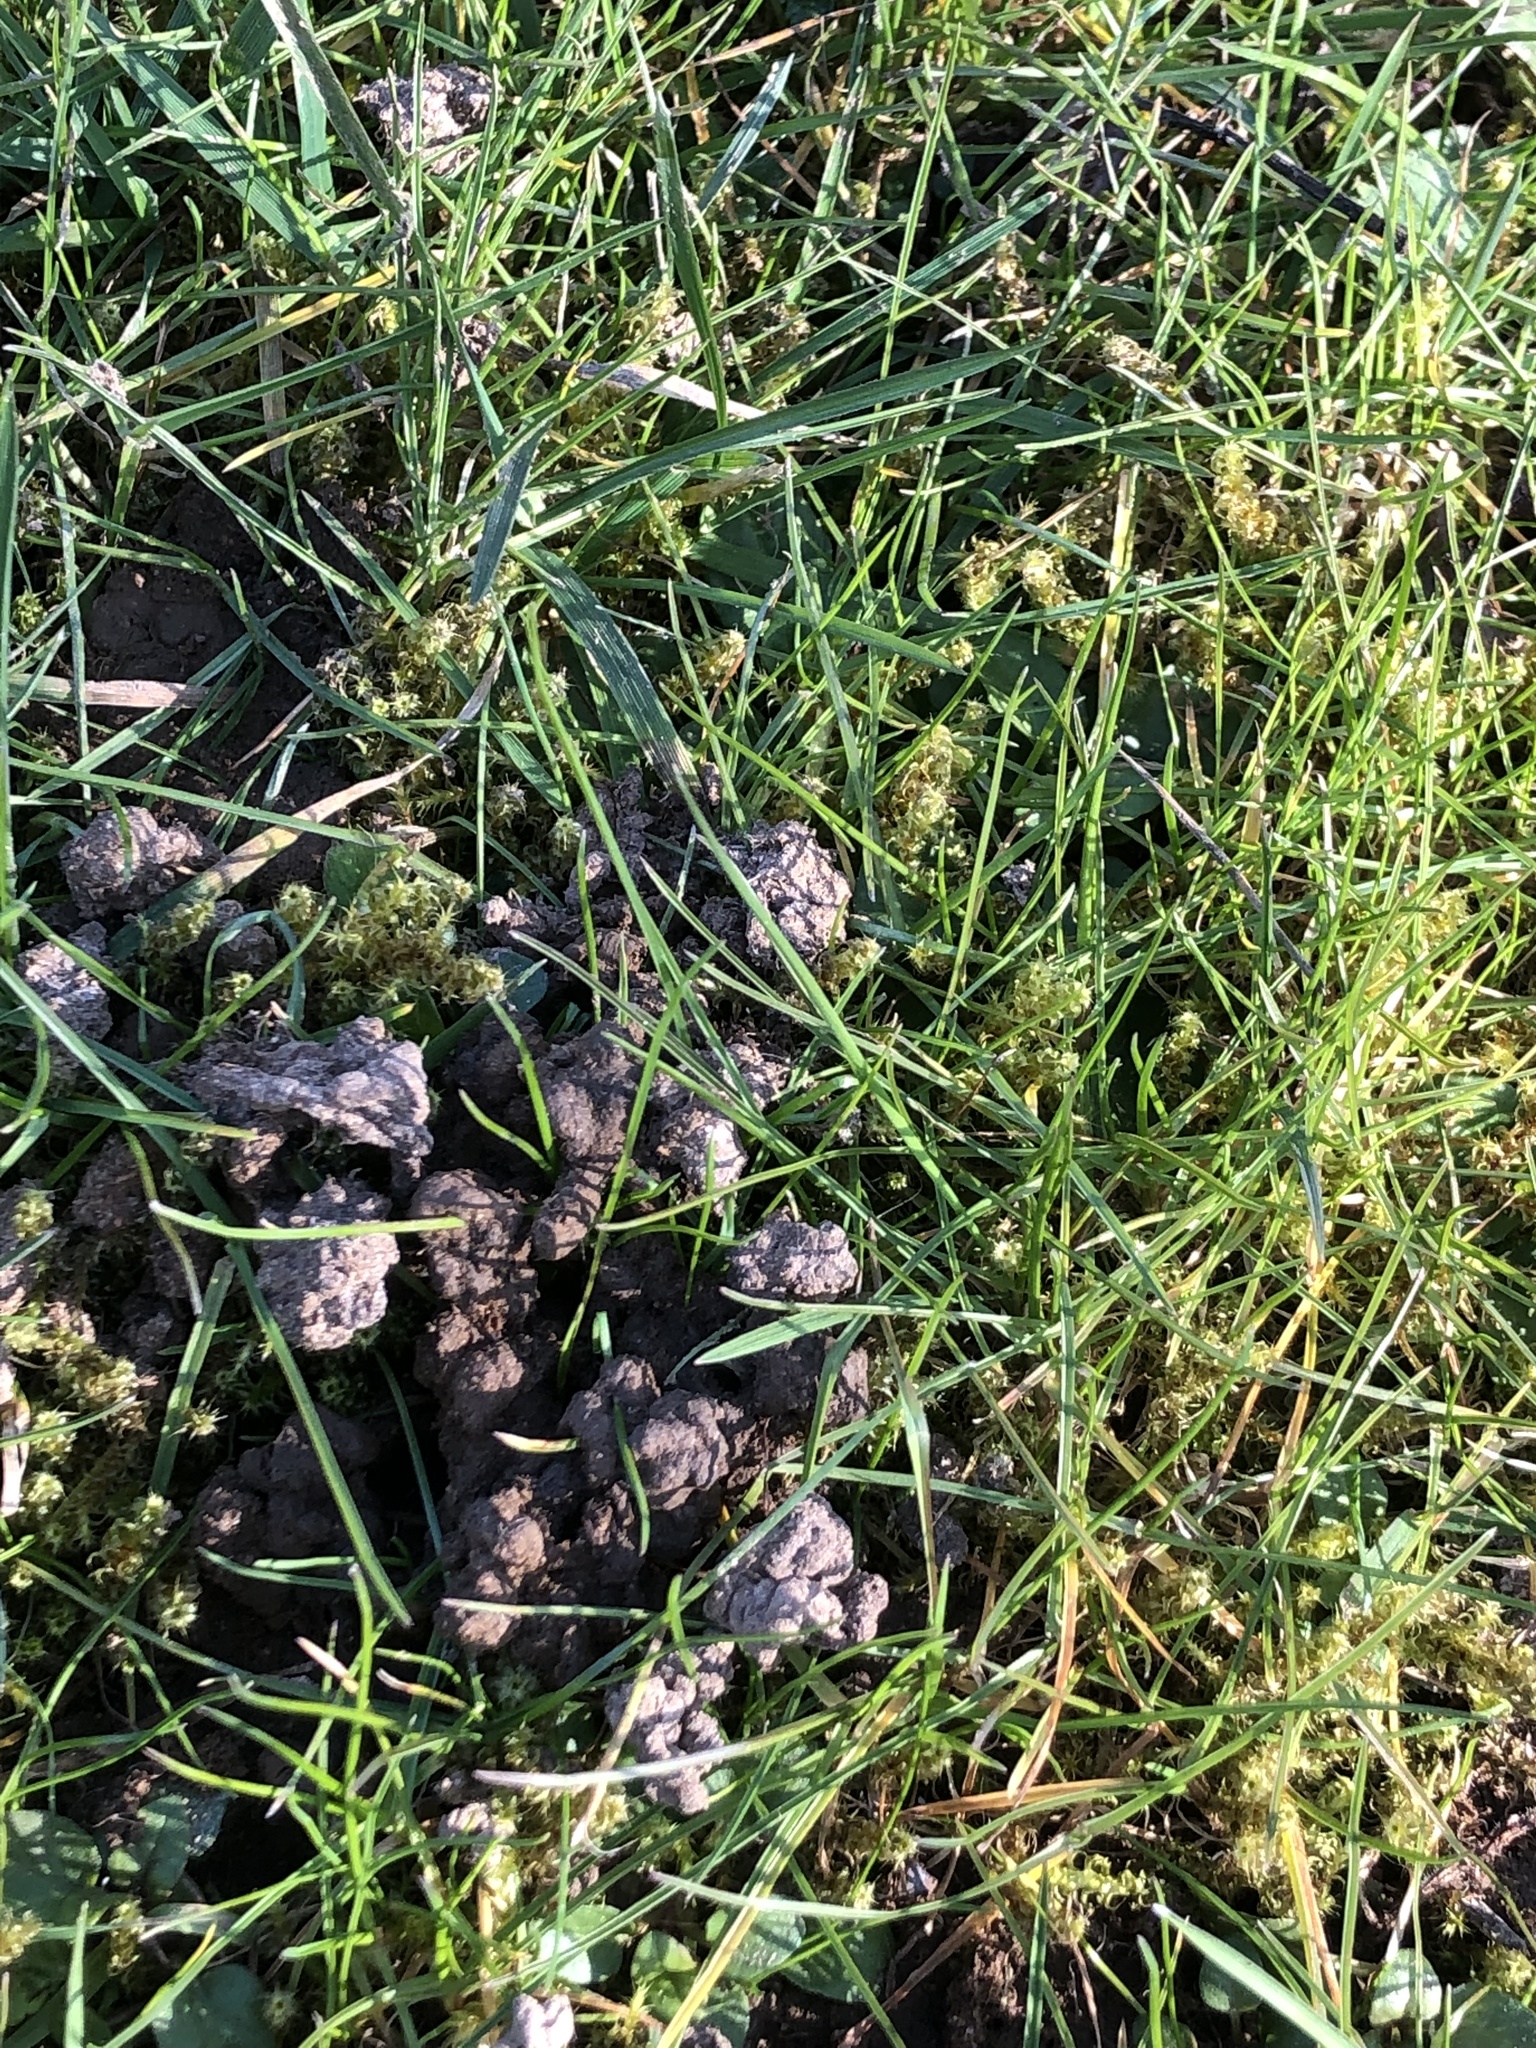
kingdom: Plantae
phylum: Tracheophyta
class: Magnoliopsida
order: Lamiales
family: Lamiaceae
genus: Glechoma
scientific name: Glechoma hederacea
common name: Ground ivy
